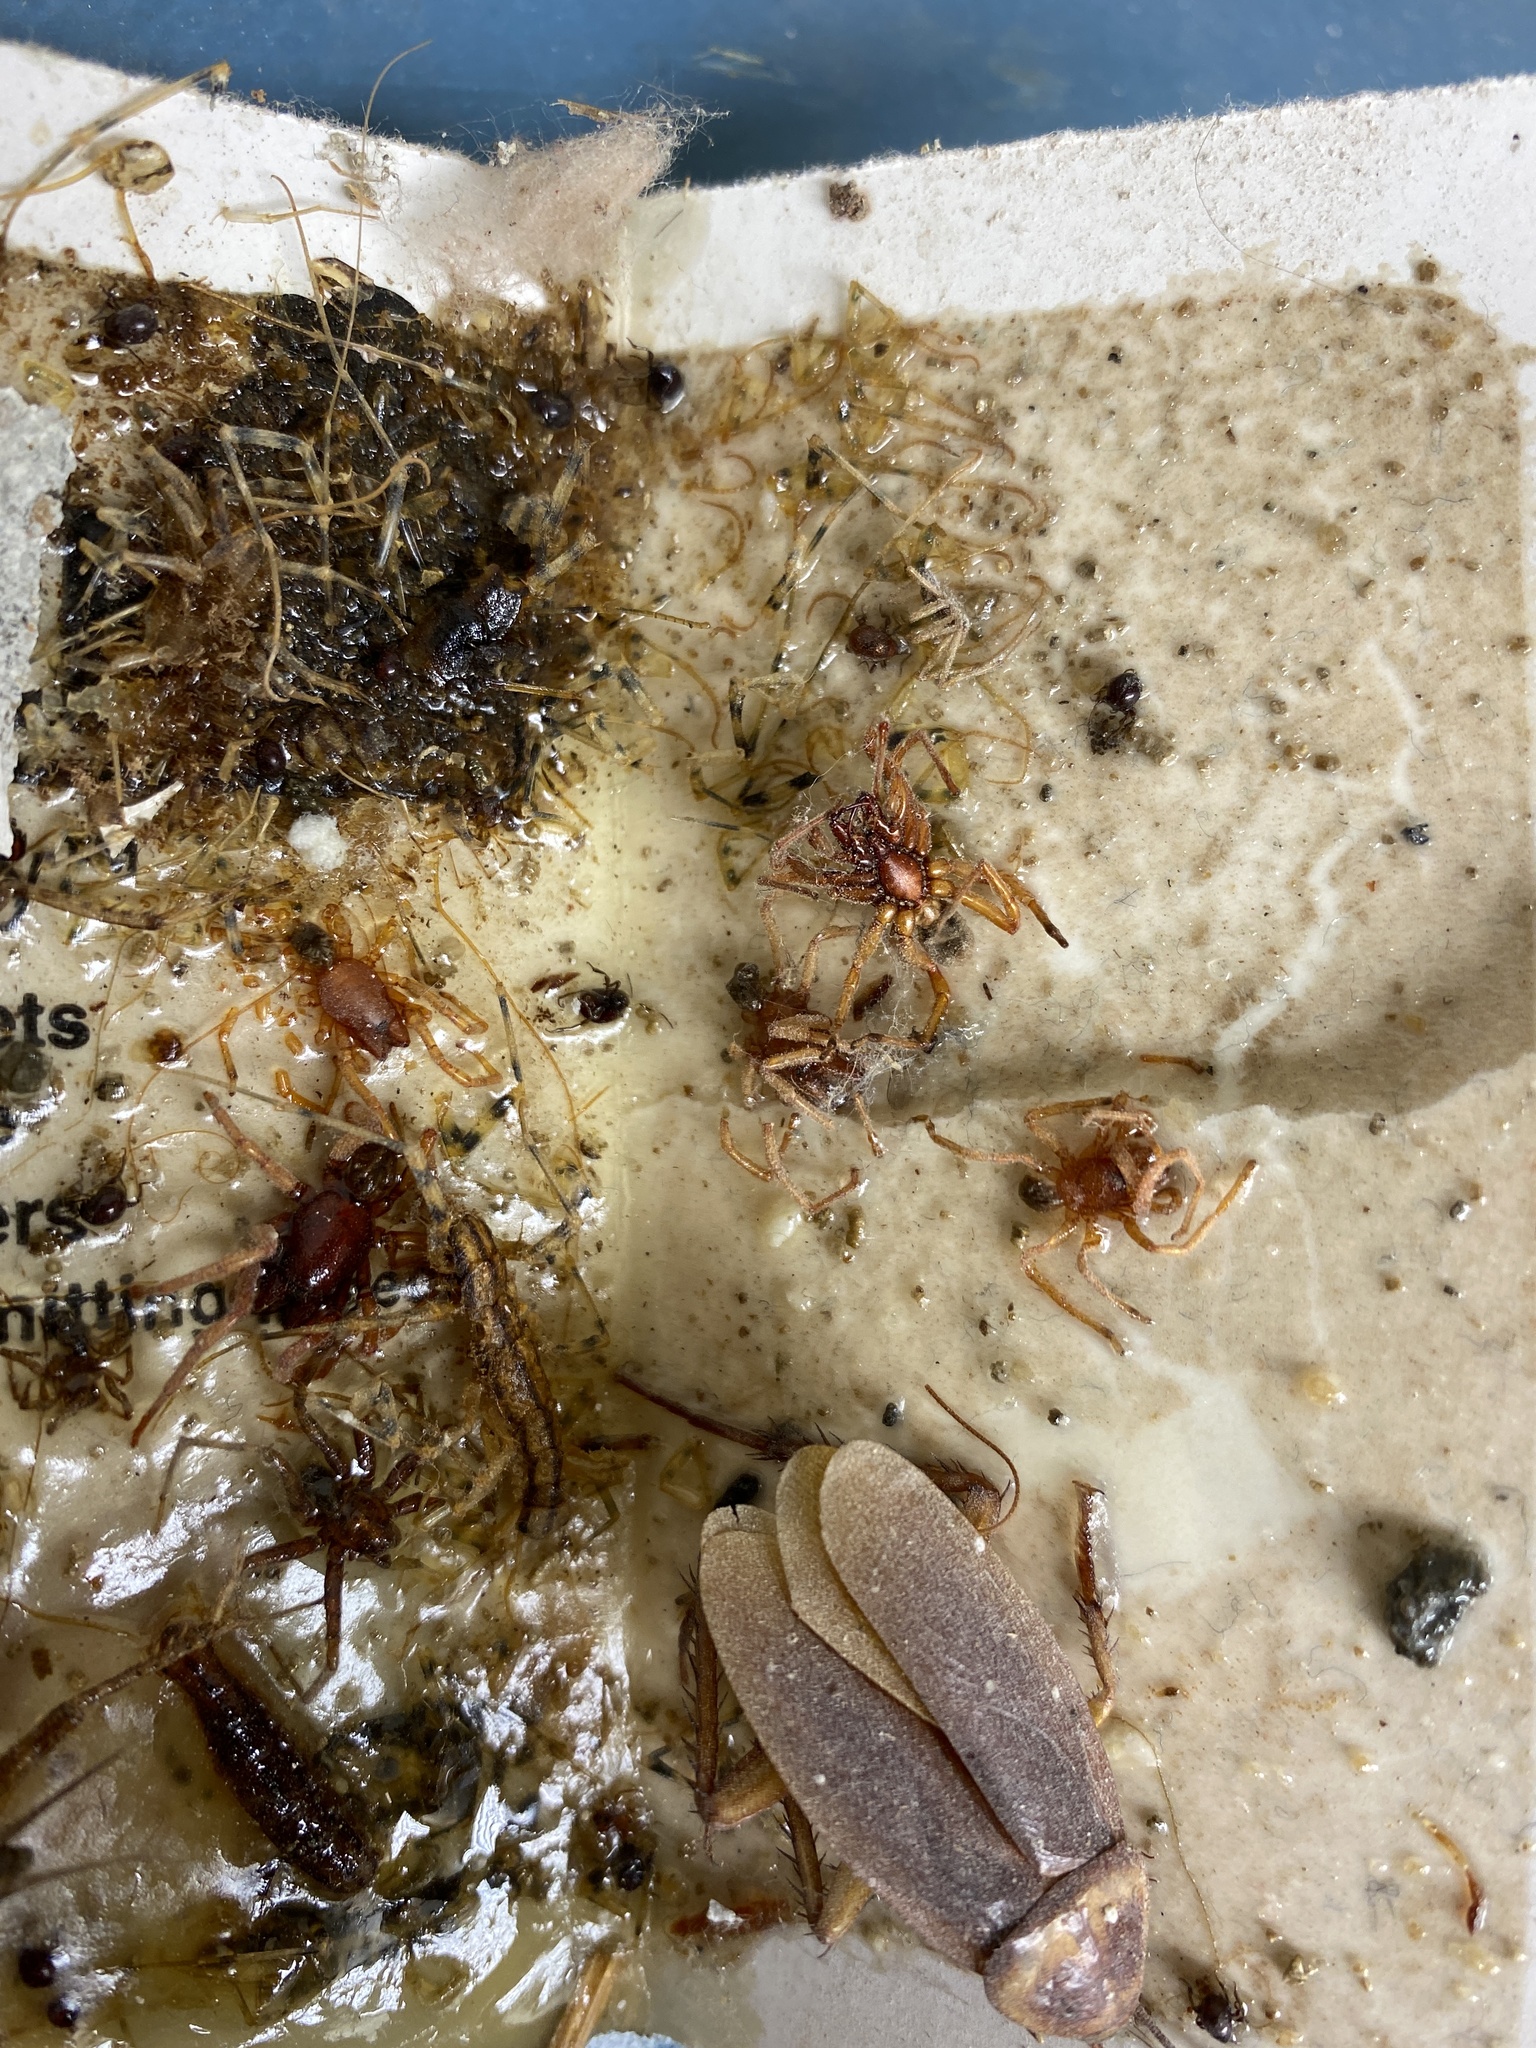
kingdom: Animalia
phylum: Arthropoda
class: Arachnida
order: Araneae
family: Dysderidae
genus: Dysdera
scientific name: Dysdera crocata
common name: Woodlouse spider
